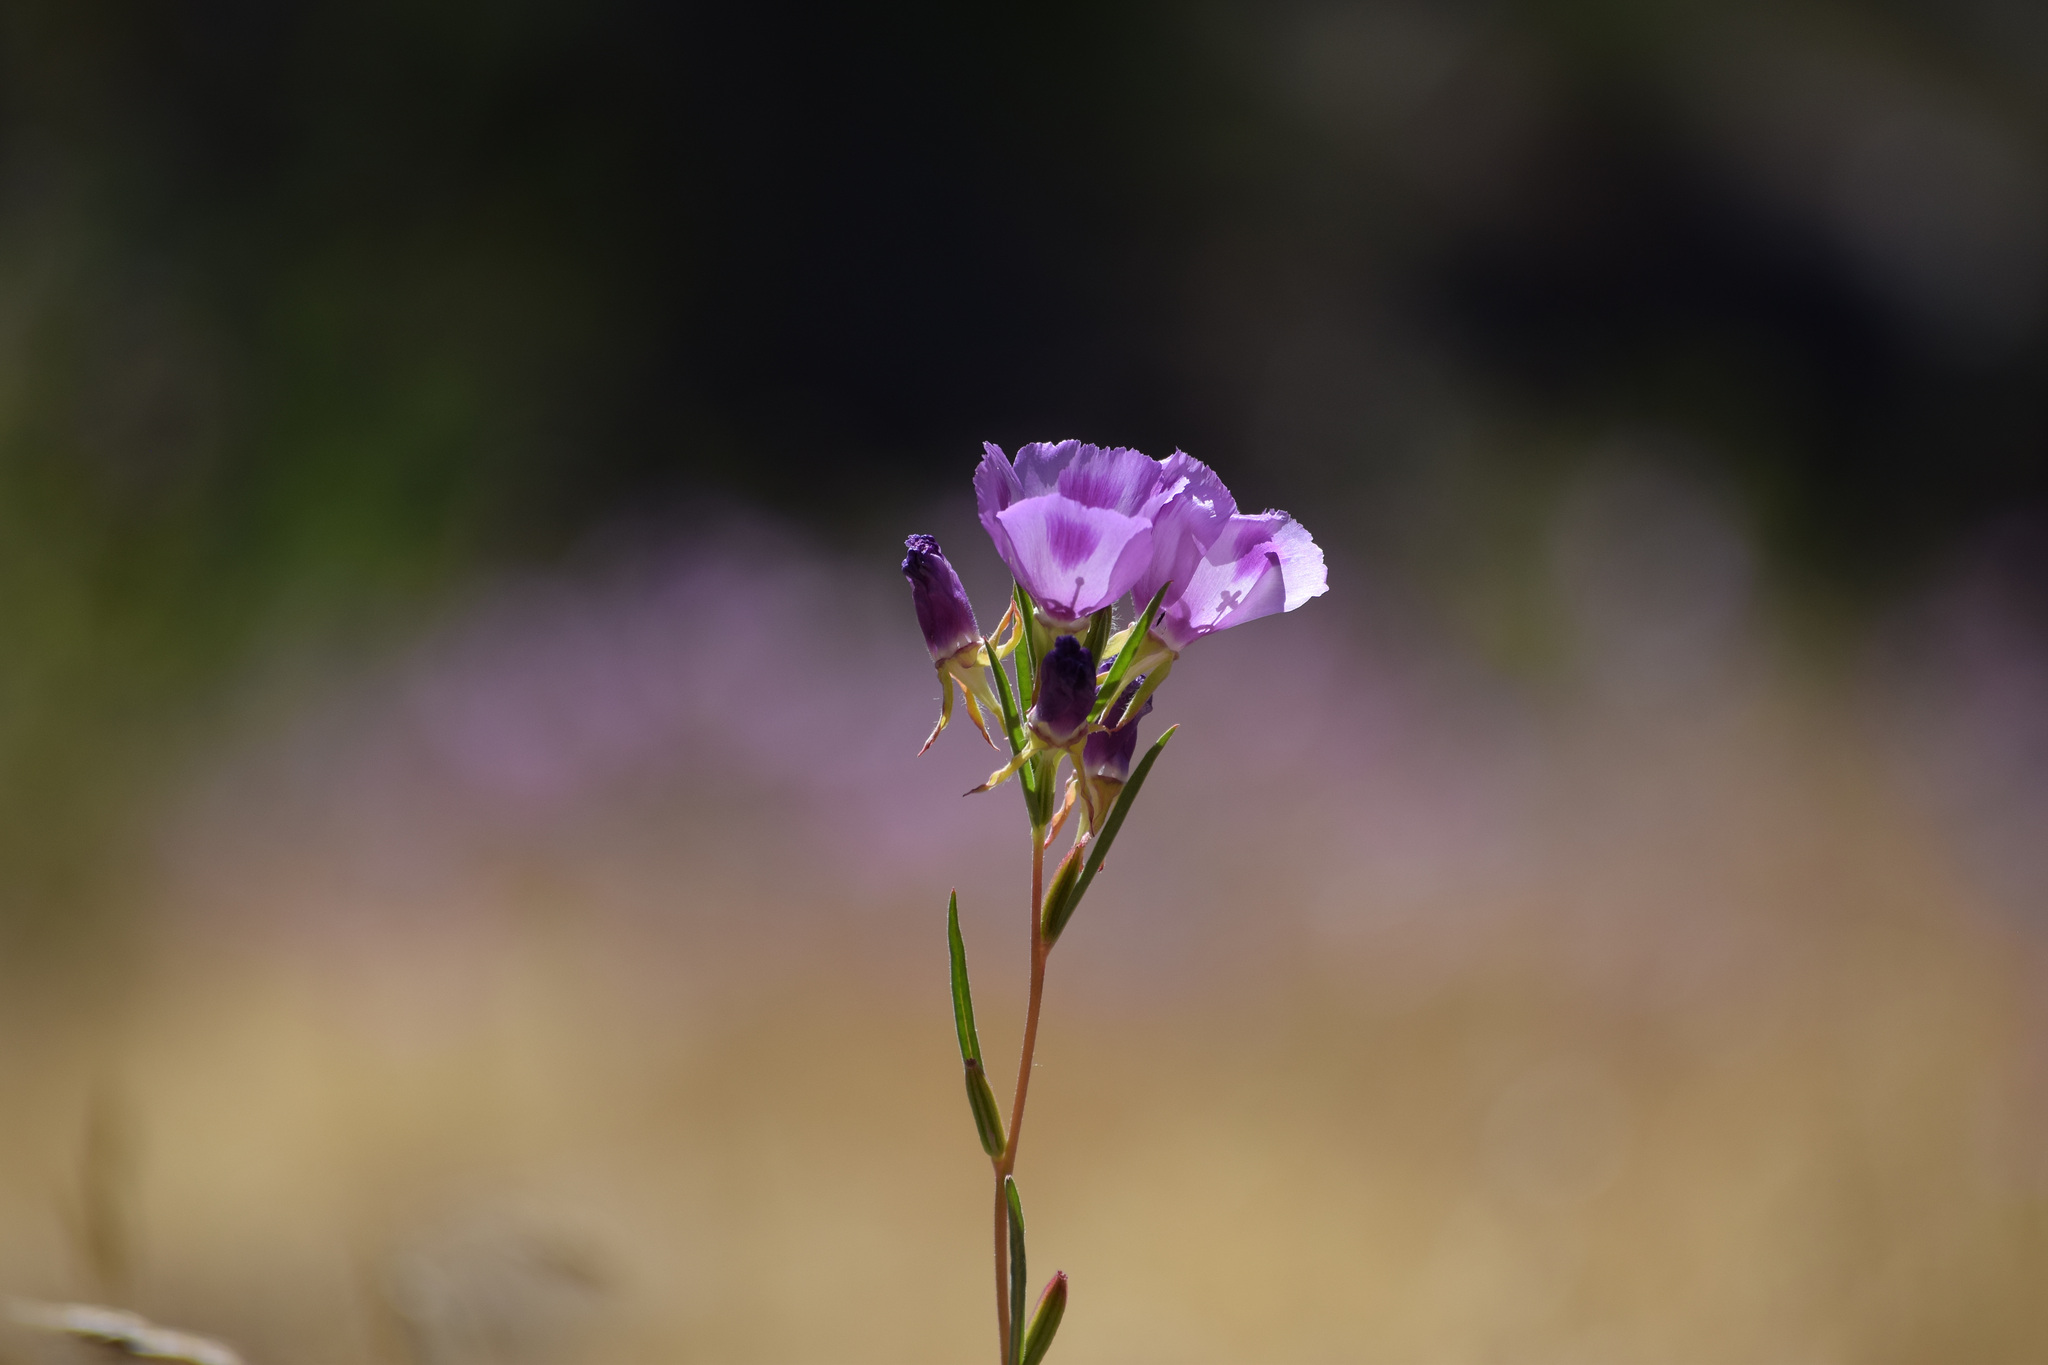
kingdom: Plantae
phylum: Tracheophyta
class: Magnoliopsida
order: Myrtales
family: Onagraceae
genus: Clarkia
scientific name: Clarkia williamsonii
